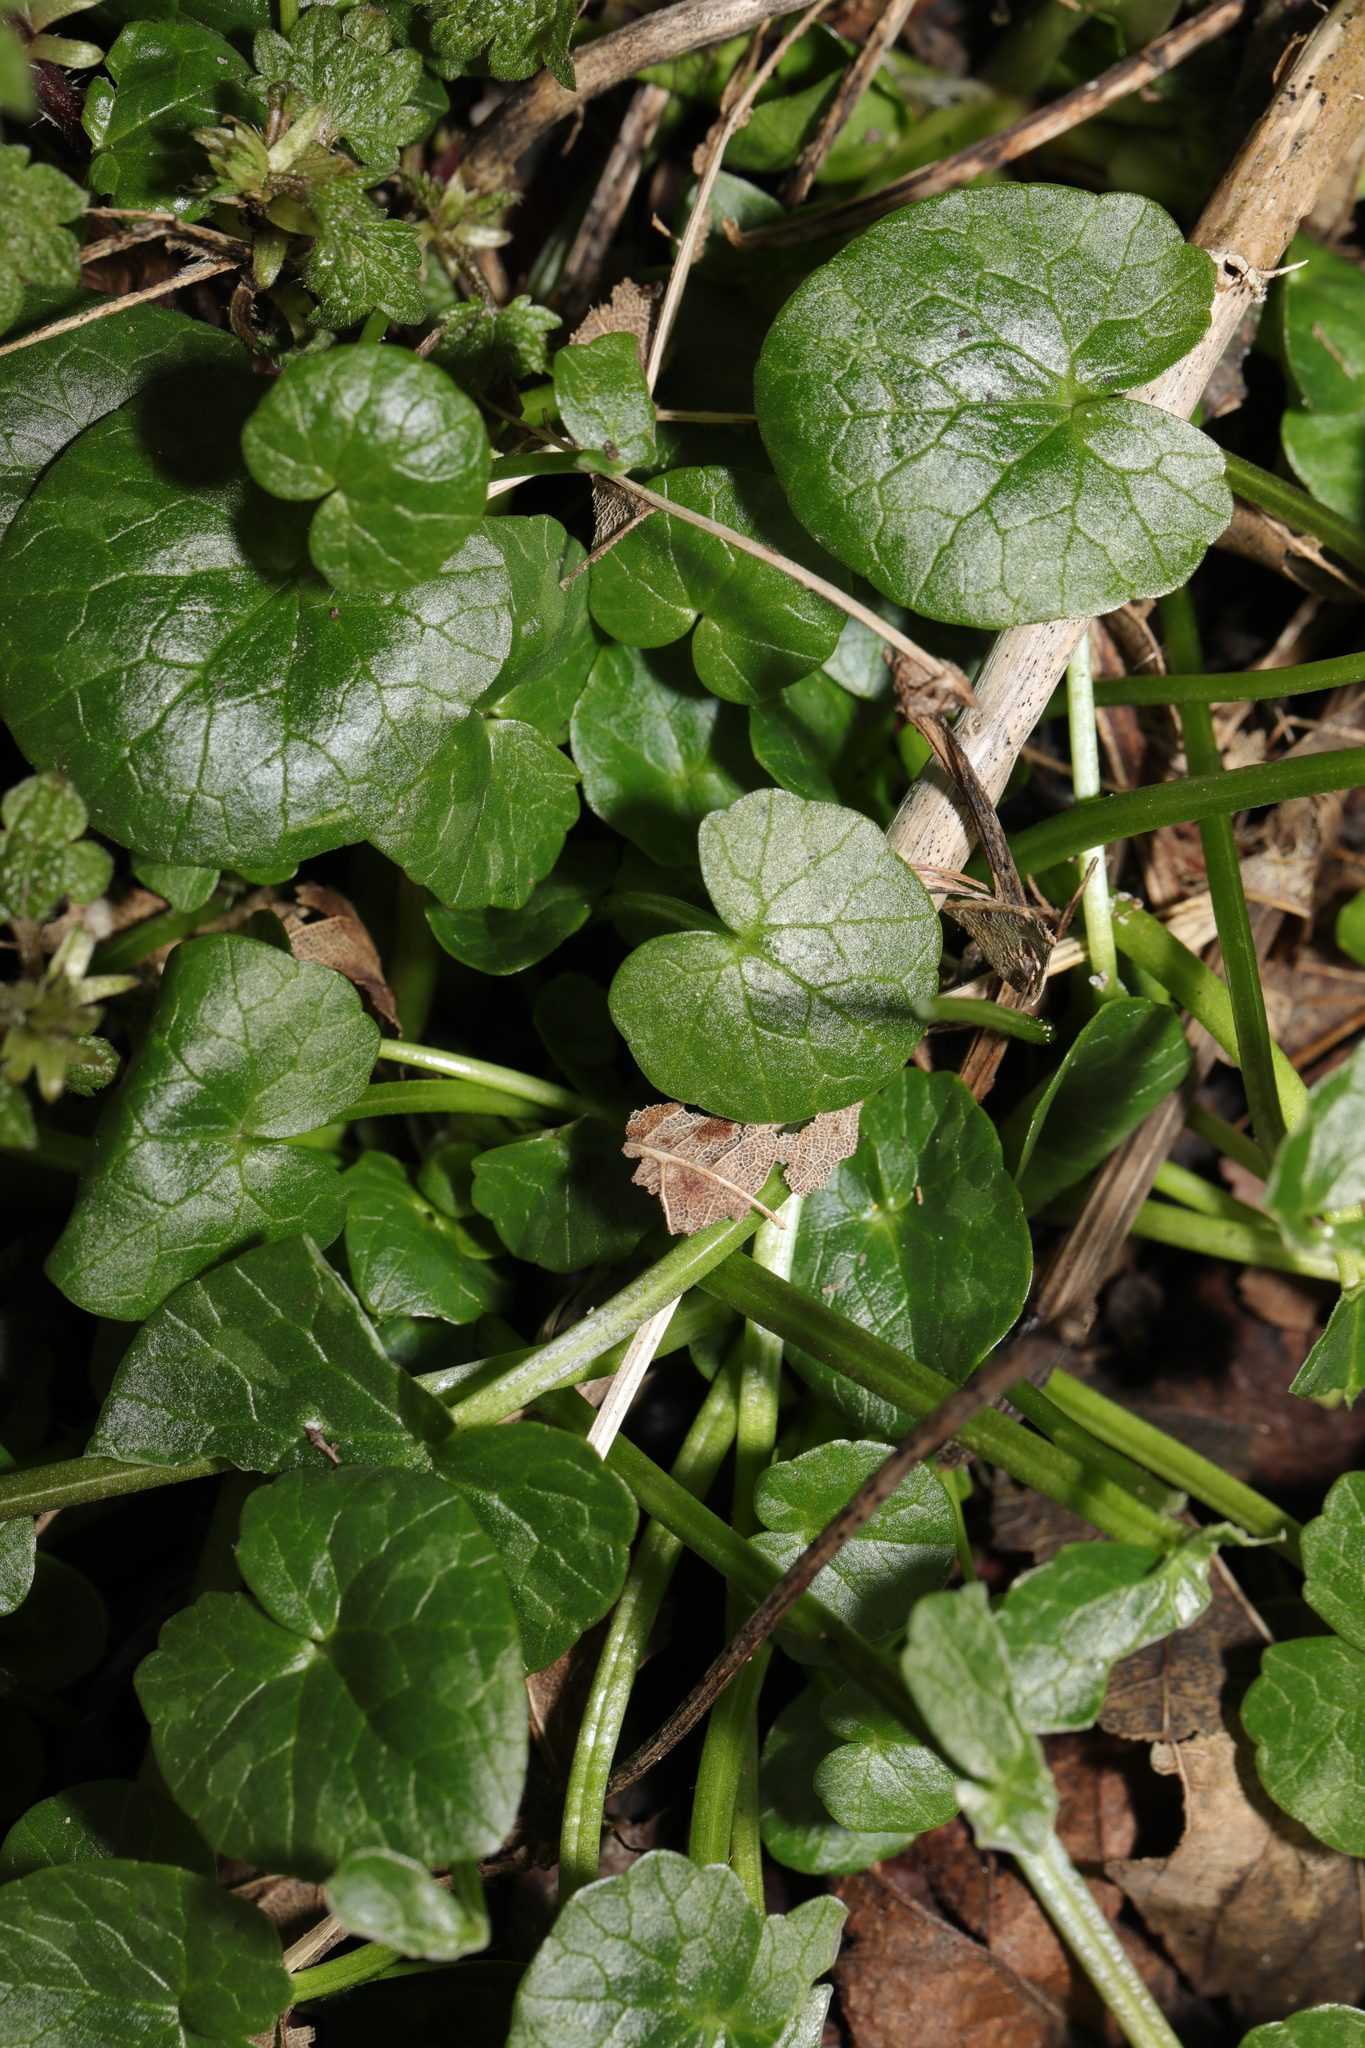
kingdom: Plantae
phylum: Tracheophyta
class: Magnoliopsida
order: Ranunculales
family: Ranunculaceae
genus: Ficaria
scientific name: Ficaria verna
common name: Lesser celandine
